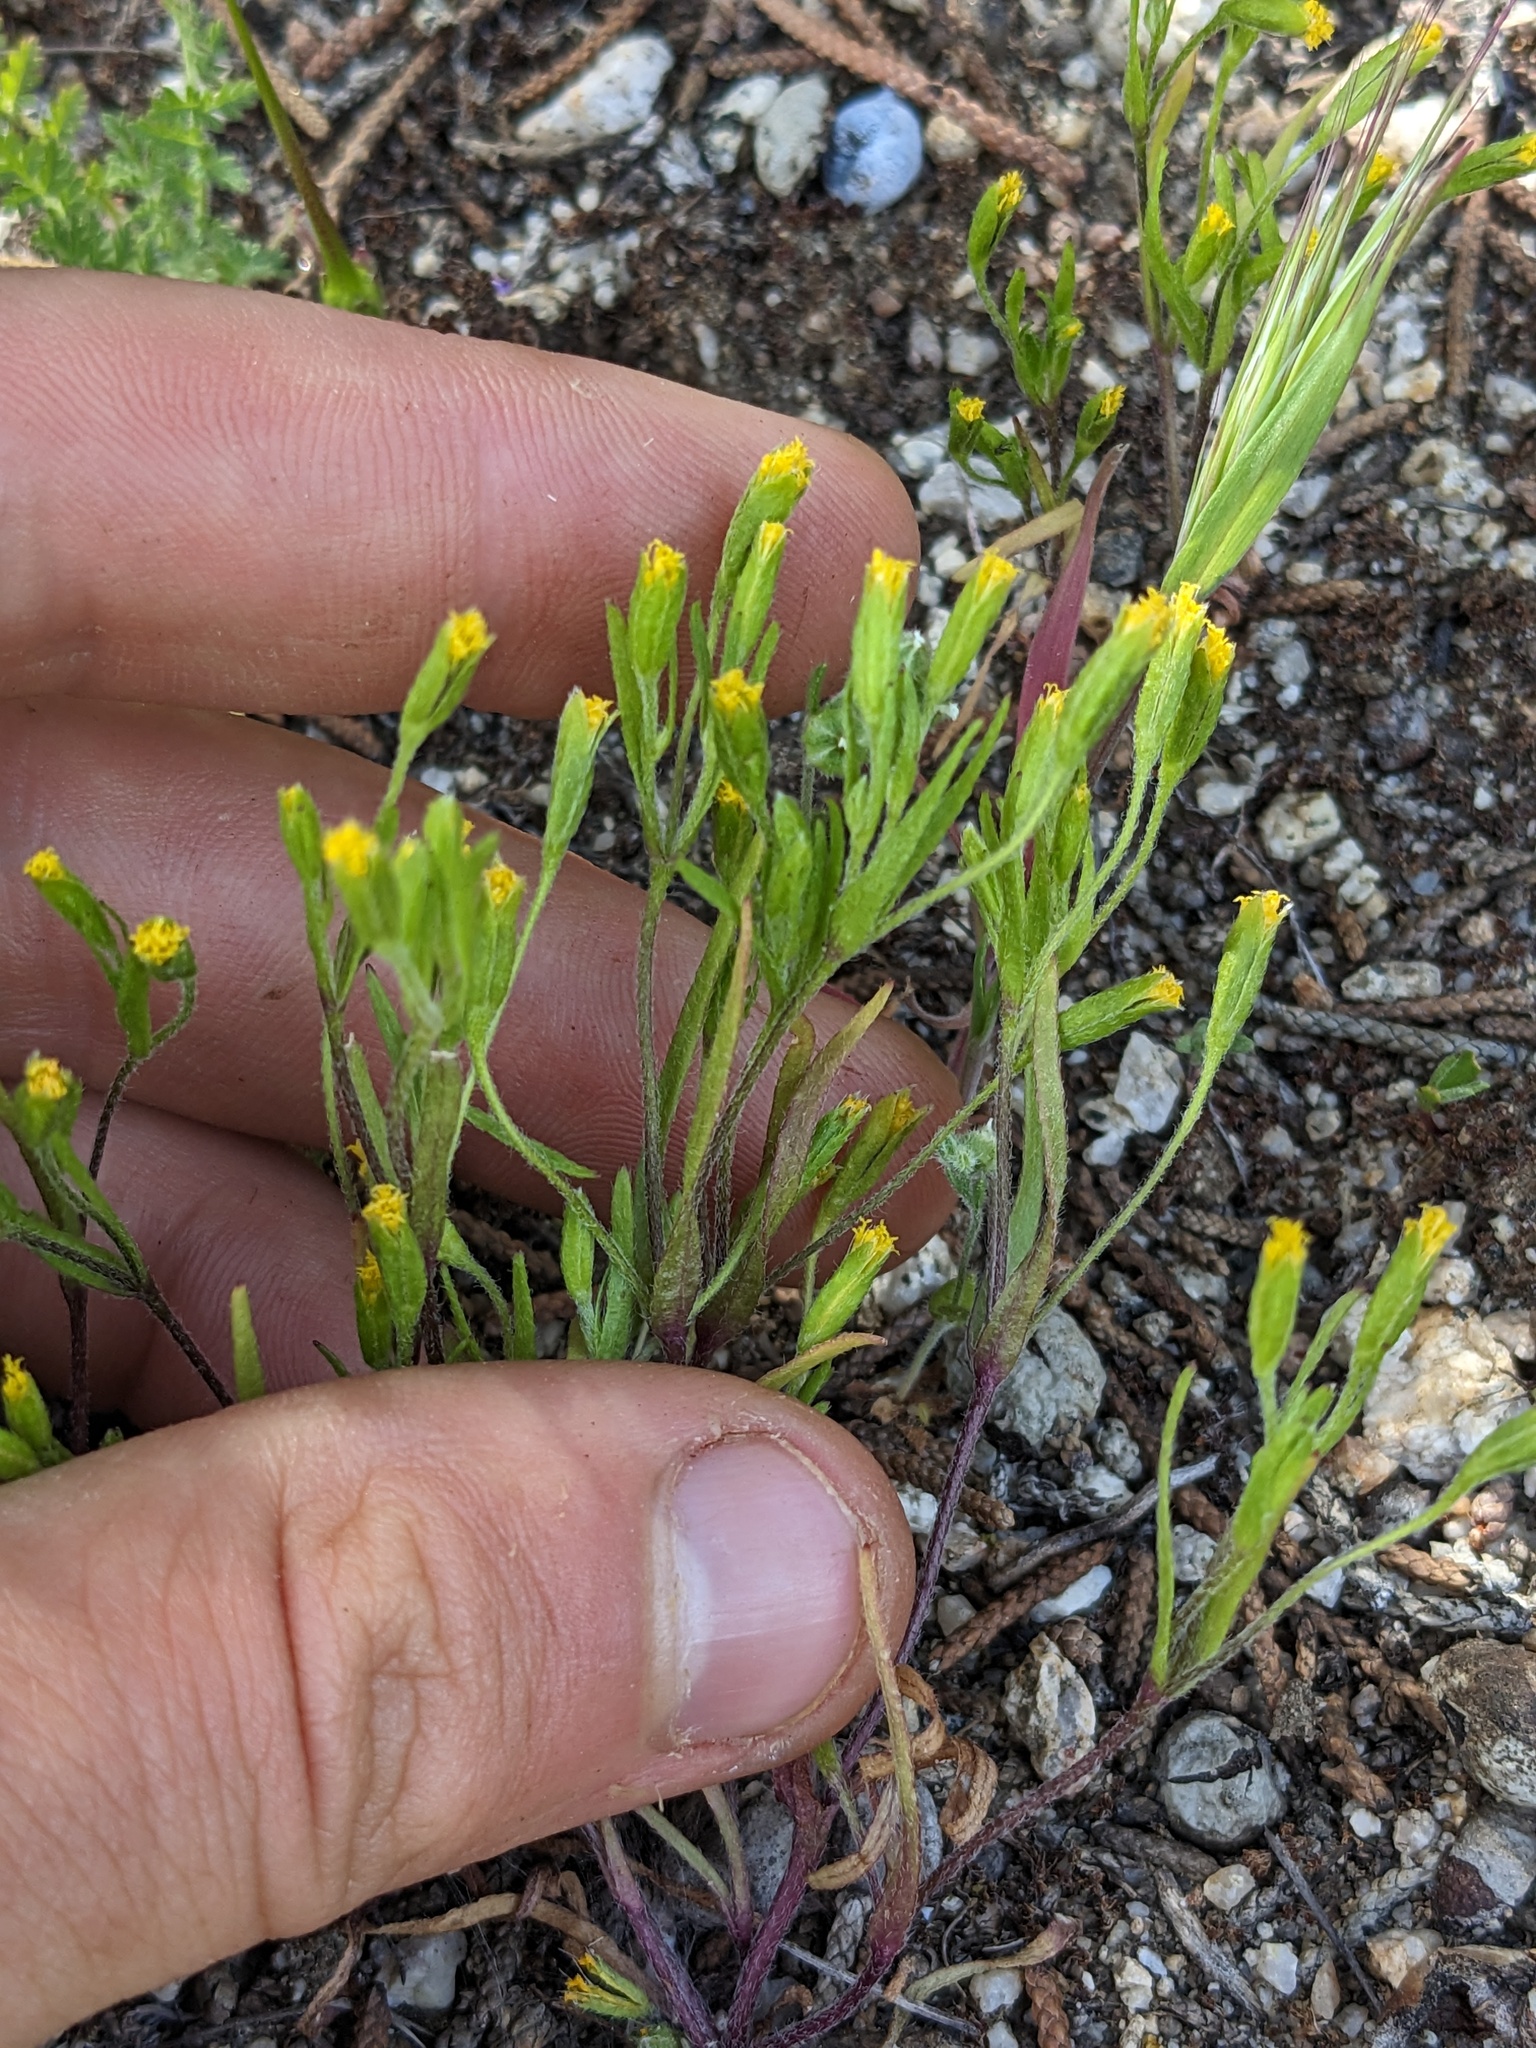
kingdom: Plantae
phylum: Tracheophyta
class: Magnoliopsida
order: Asterales
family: Asteraceae
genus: Lasthenia
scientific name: Lasthenia microglossa
